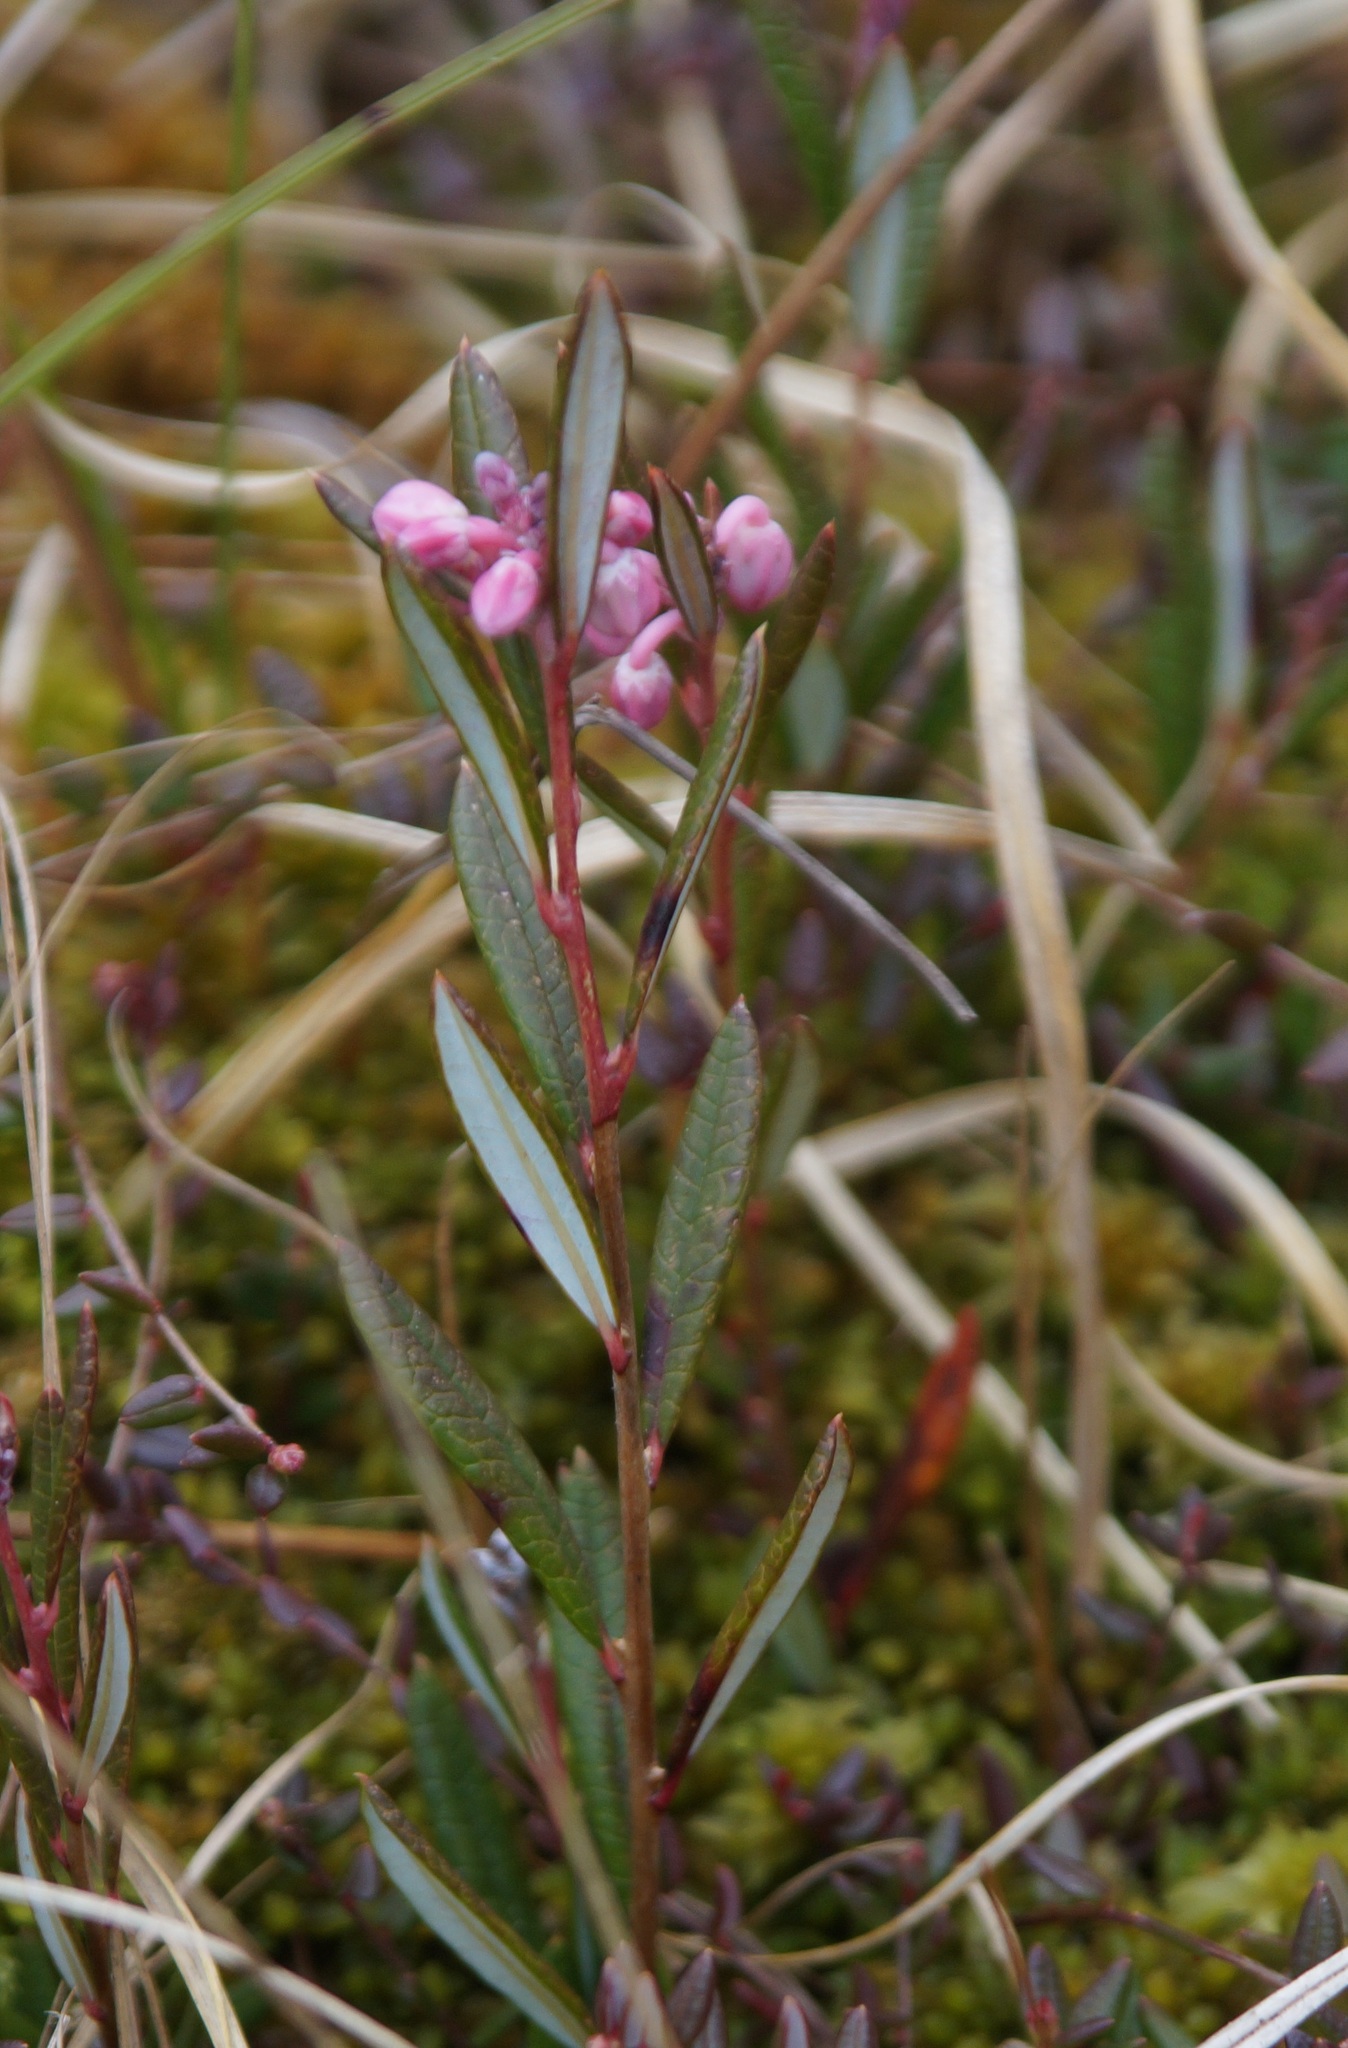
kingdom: Plantae
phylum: Tracheophyta
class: Magnoliopsida
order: Ericales
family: Ericaceae
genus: Andromeda
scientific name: Andromeda polifolia
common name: Bog-rosemary
